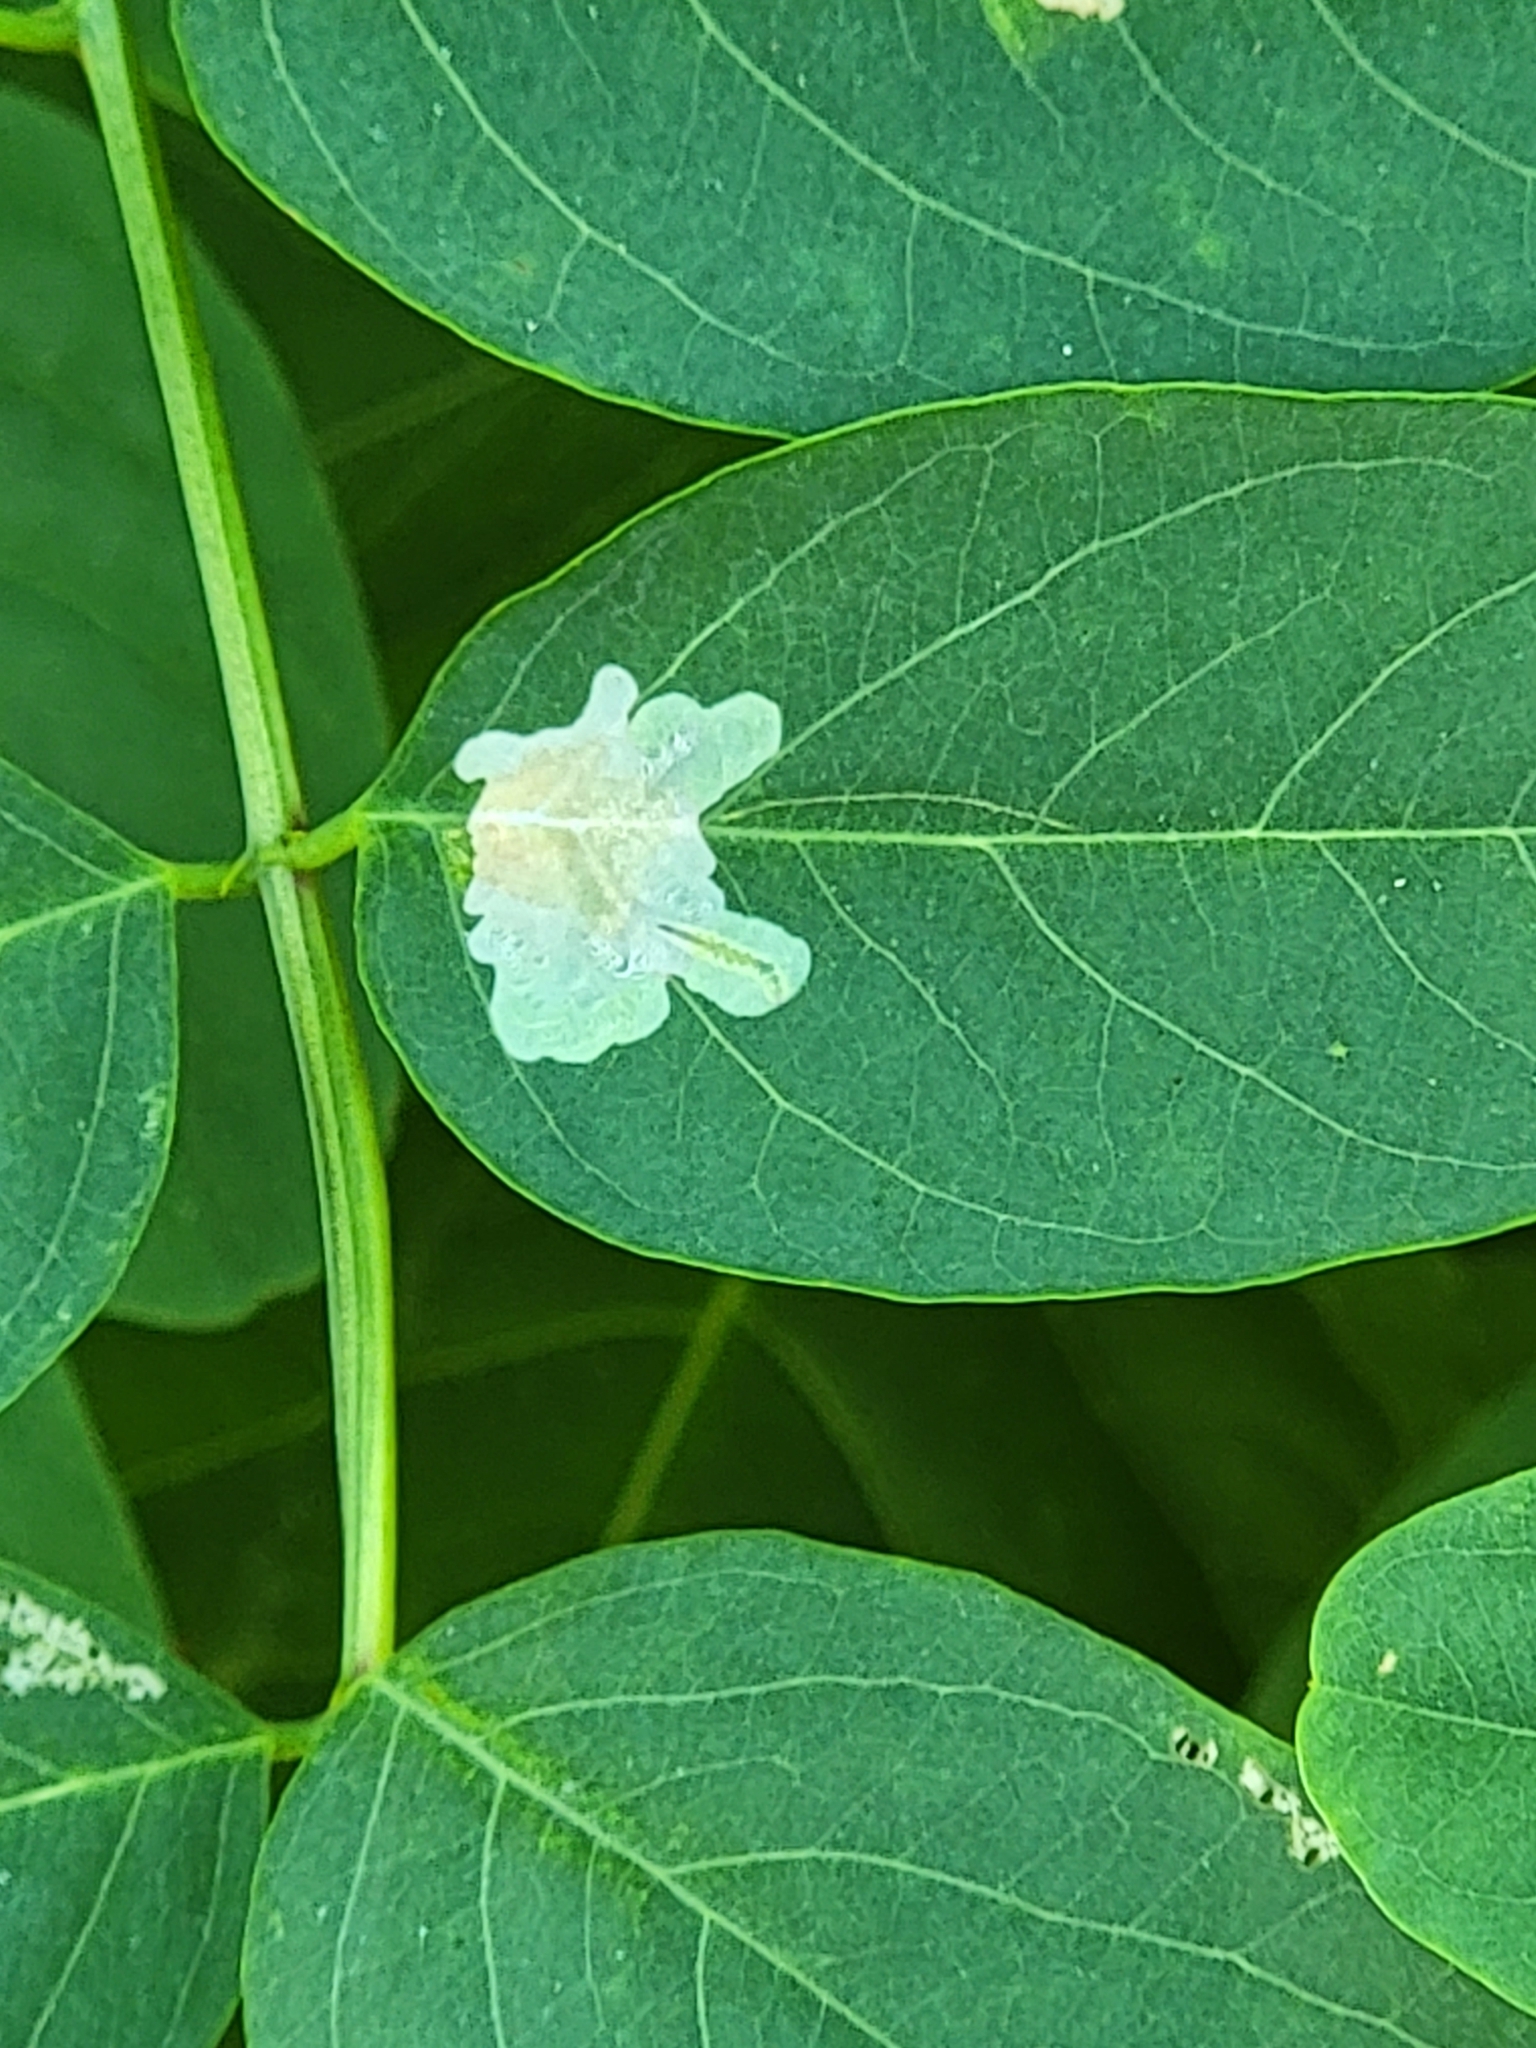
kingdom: Animalia
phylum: Arthropoda
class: Insecta
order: Lepidoptera
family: Gracillariidae
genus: Parectopa
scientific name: Parectopa robiniella
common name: Locust digitate leafminer
